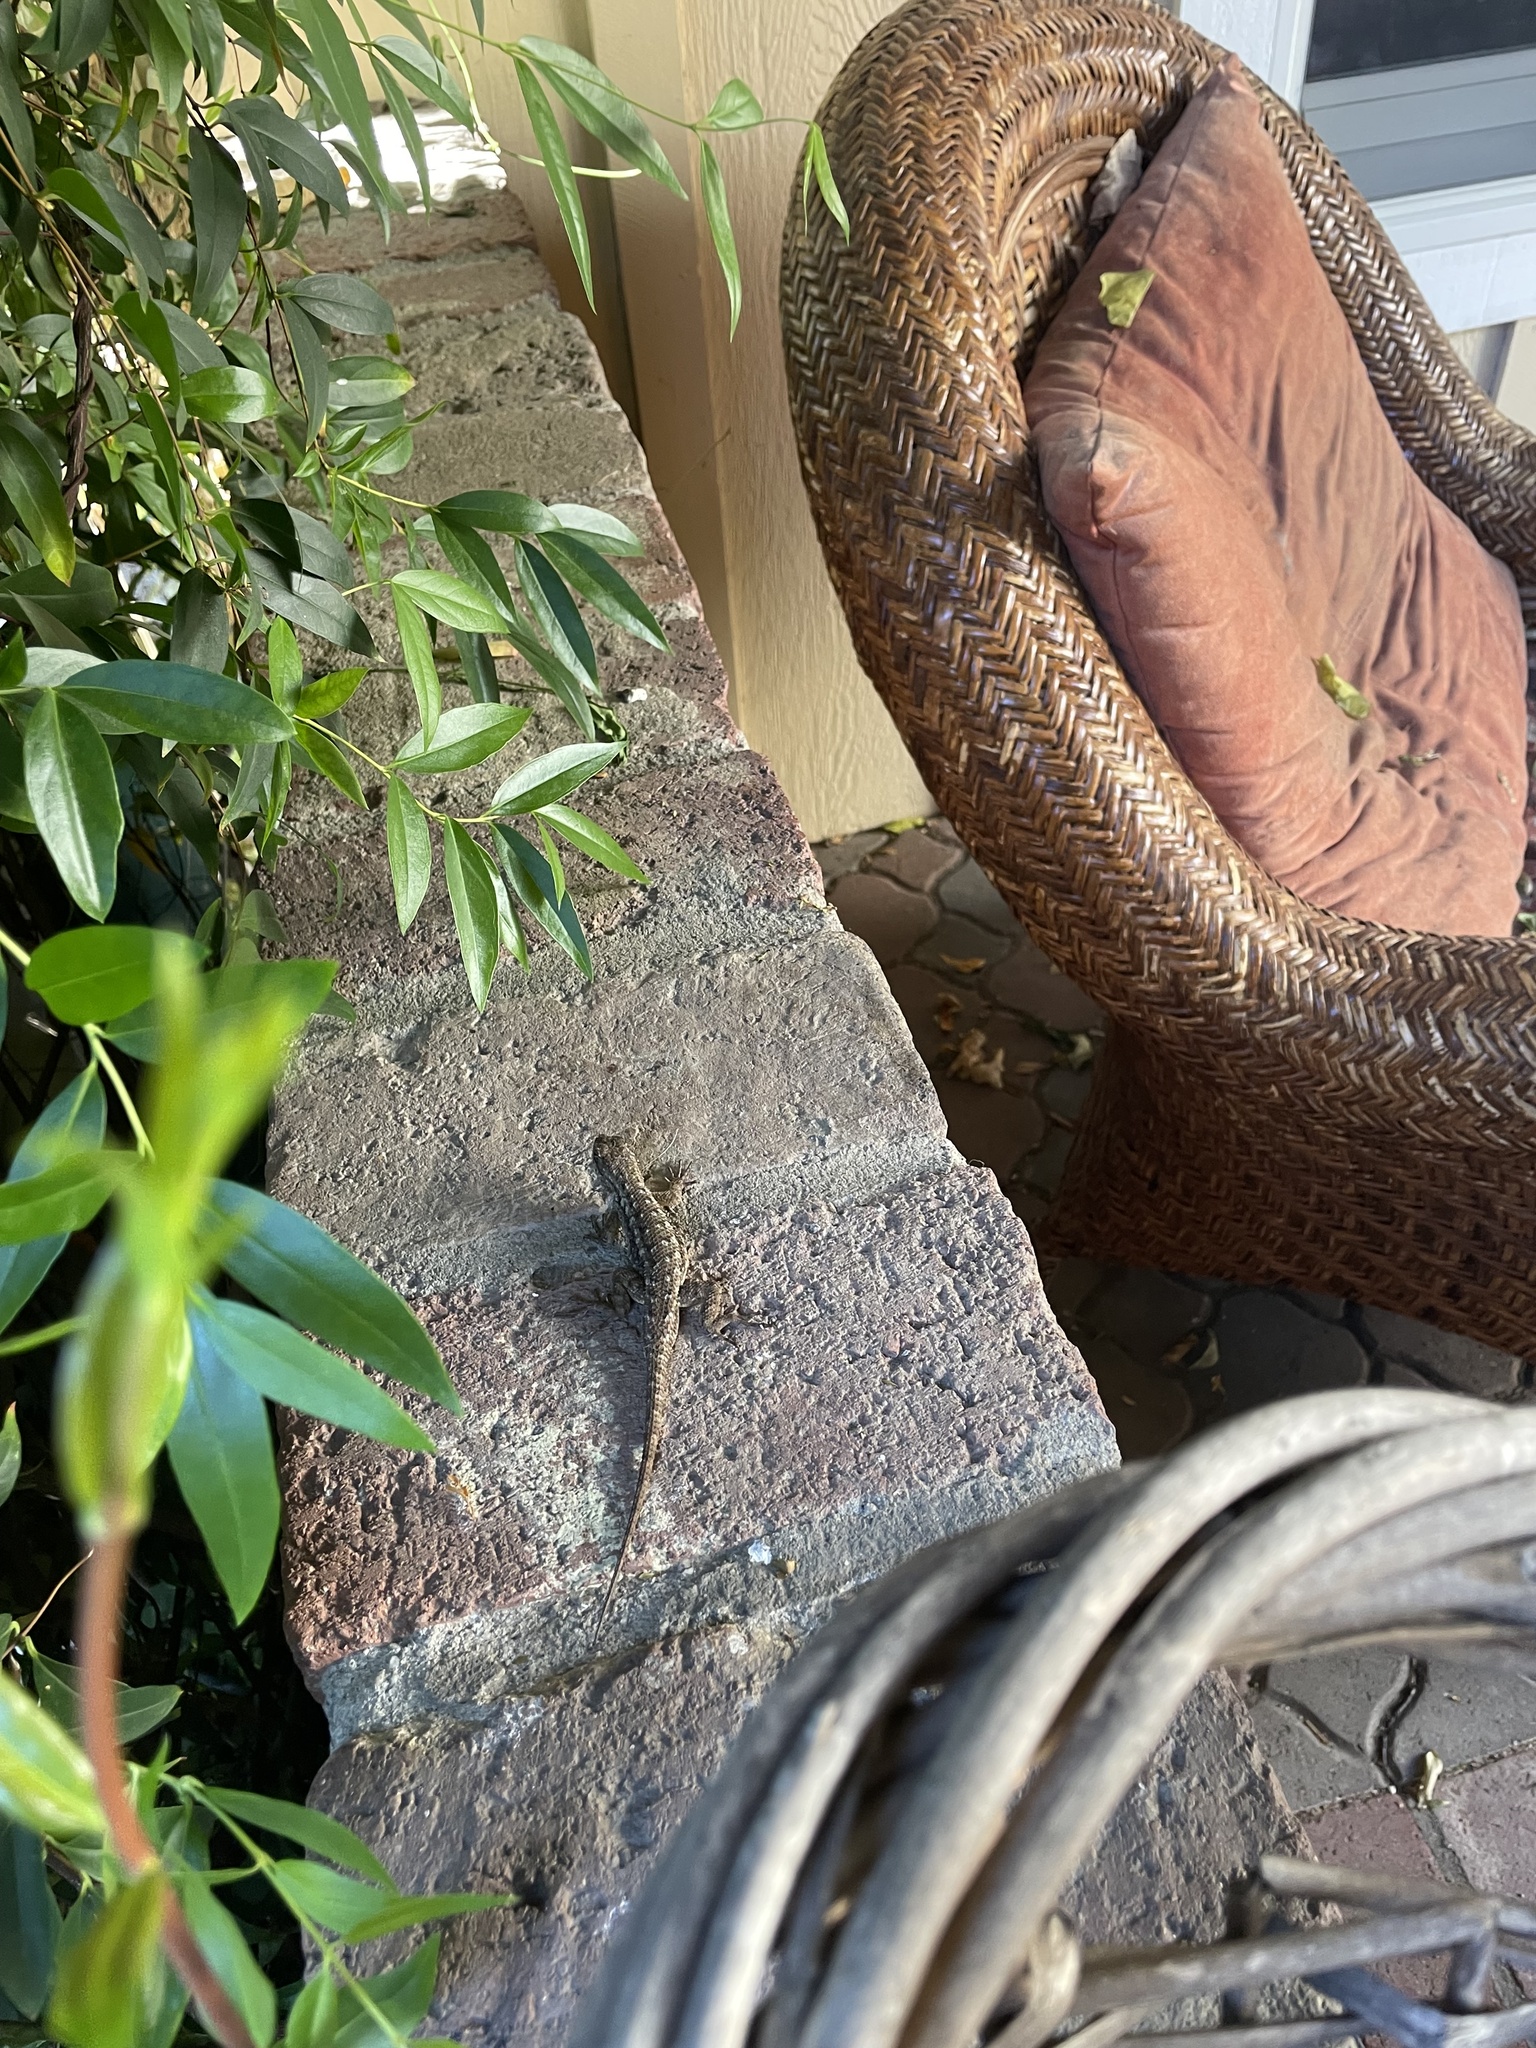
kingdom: Animalia
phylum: Chordata
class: Squamata
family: Phrynosomatidae
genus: Sceloporus
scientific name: Sceloporus occidentalis
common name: Western fence lizard
